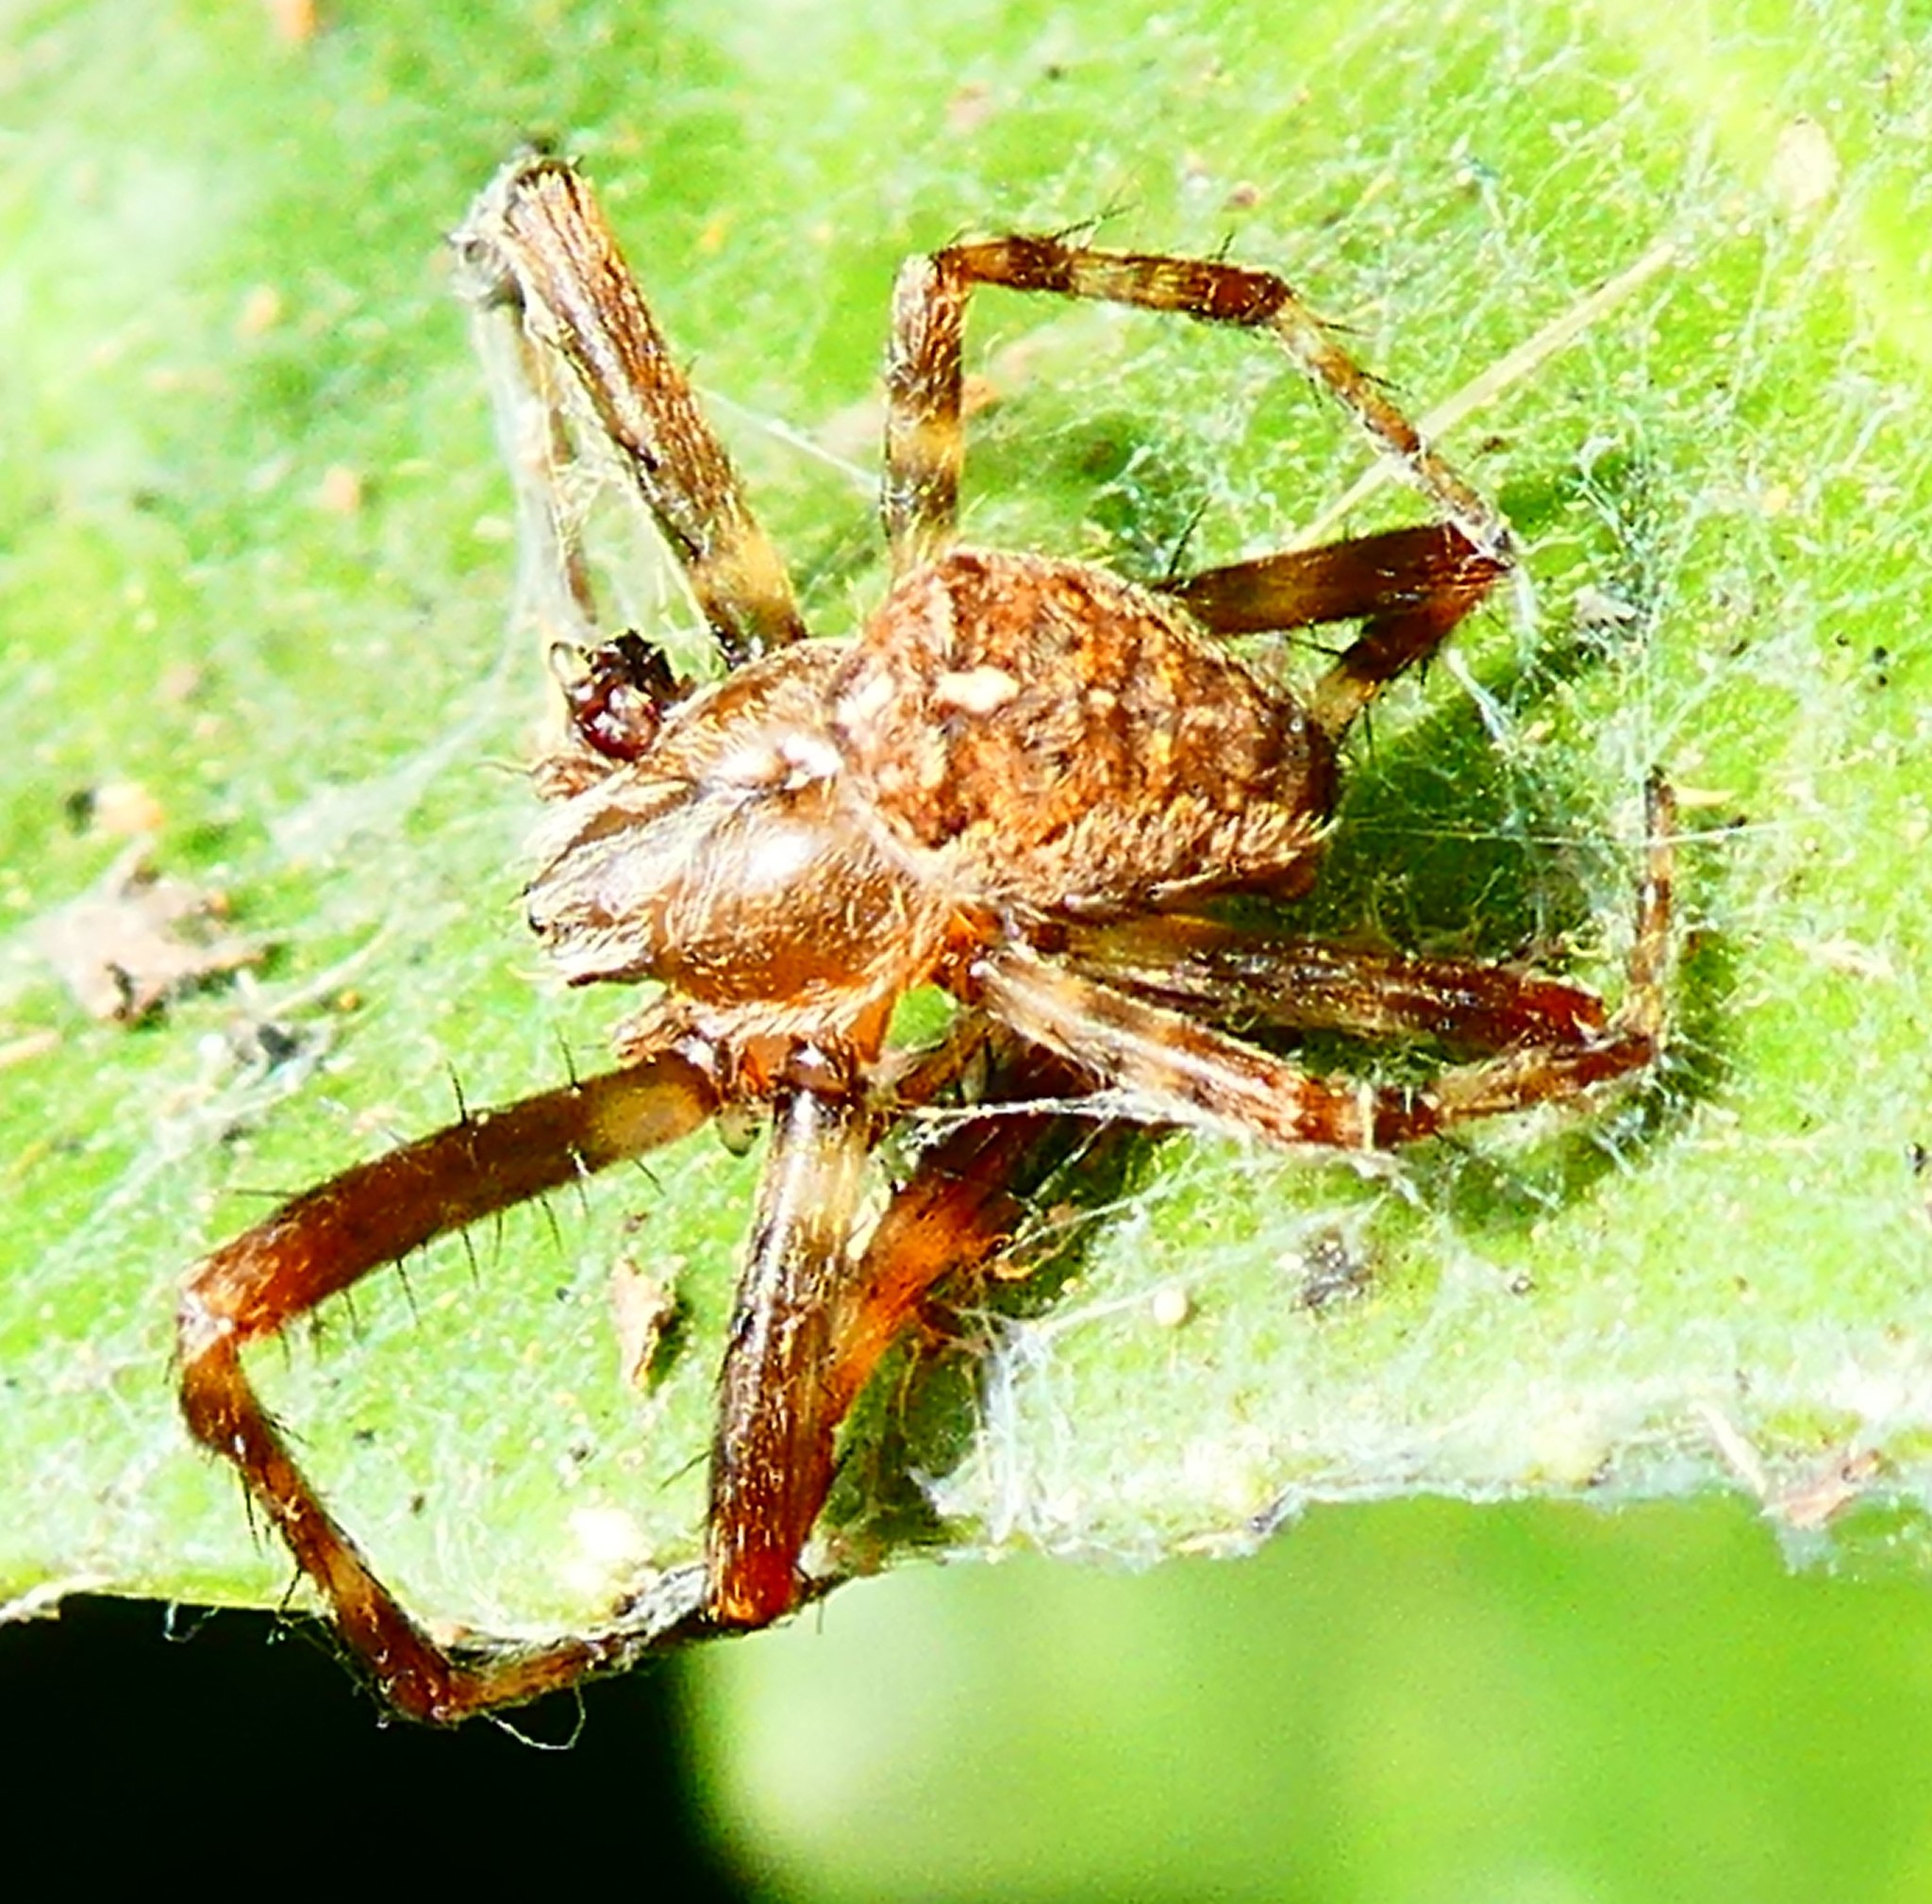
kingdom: Animalia
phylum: Arthropoda
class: Arachnida
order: Araneae
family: Araneidae
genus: Araneus
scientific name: Araneus diadematus
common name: Cross orbweaver
